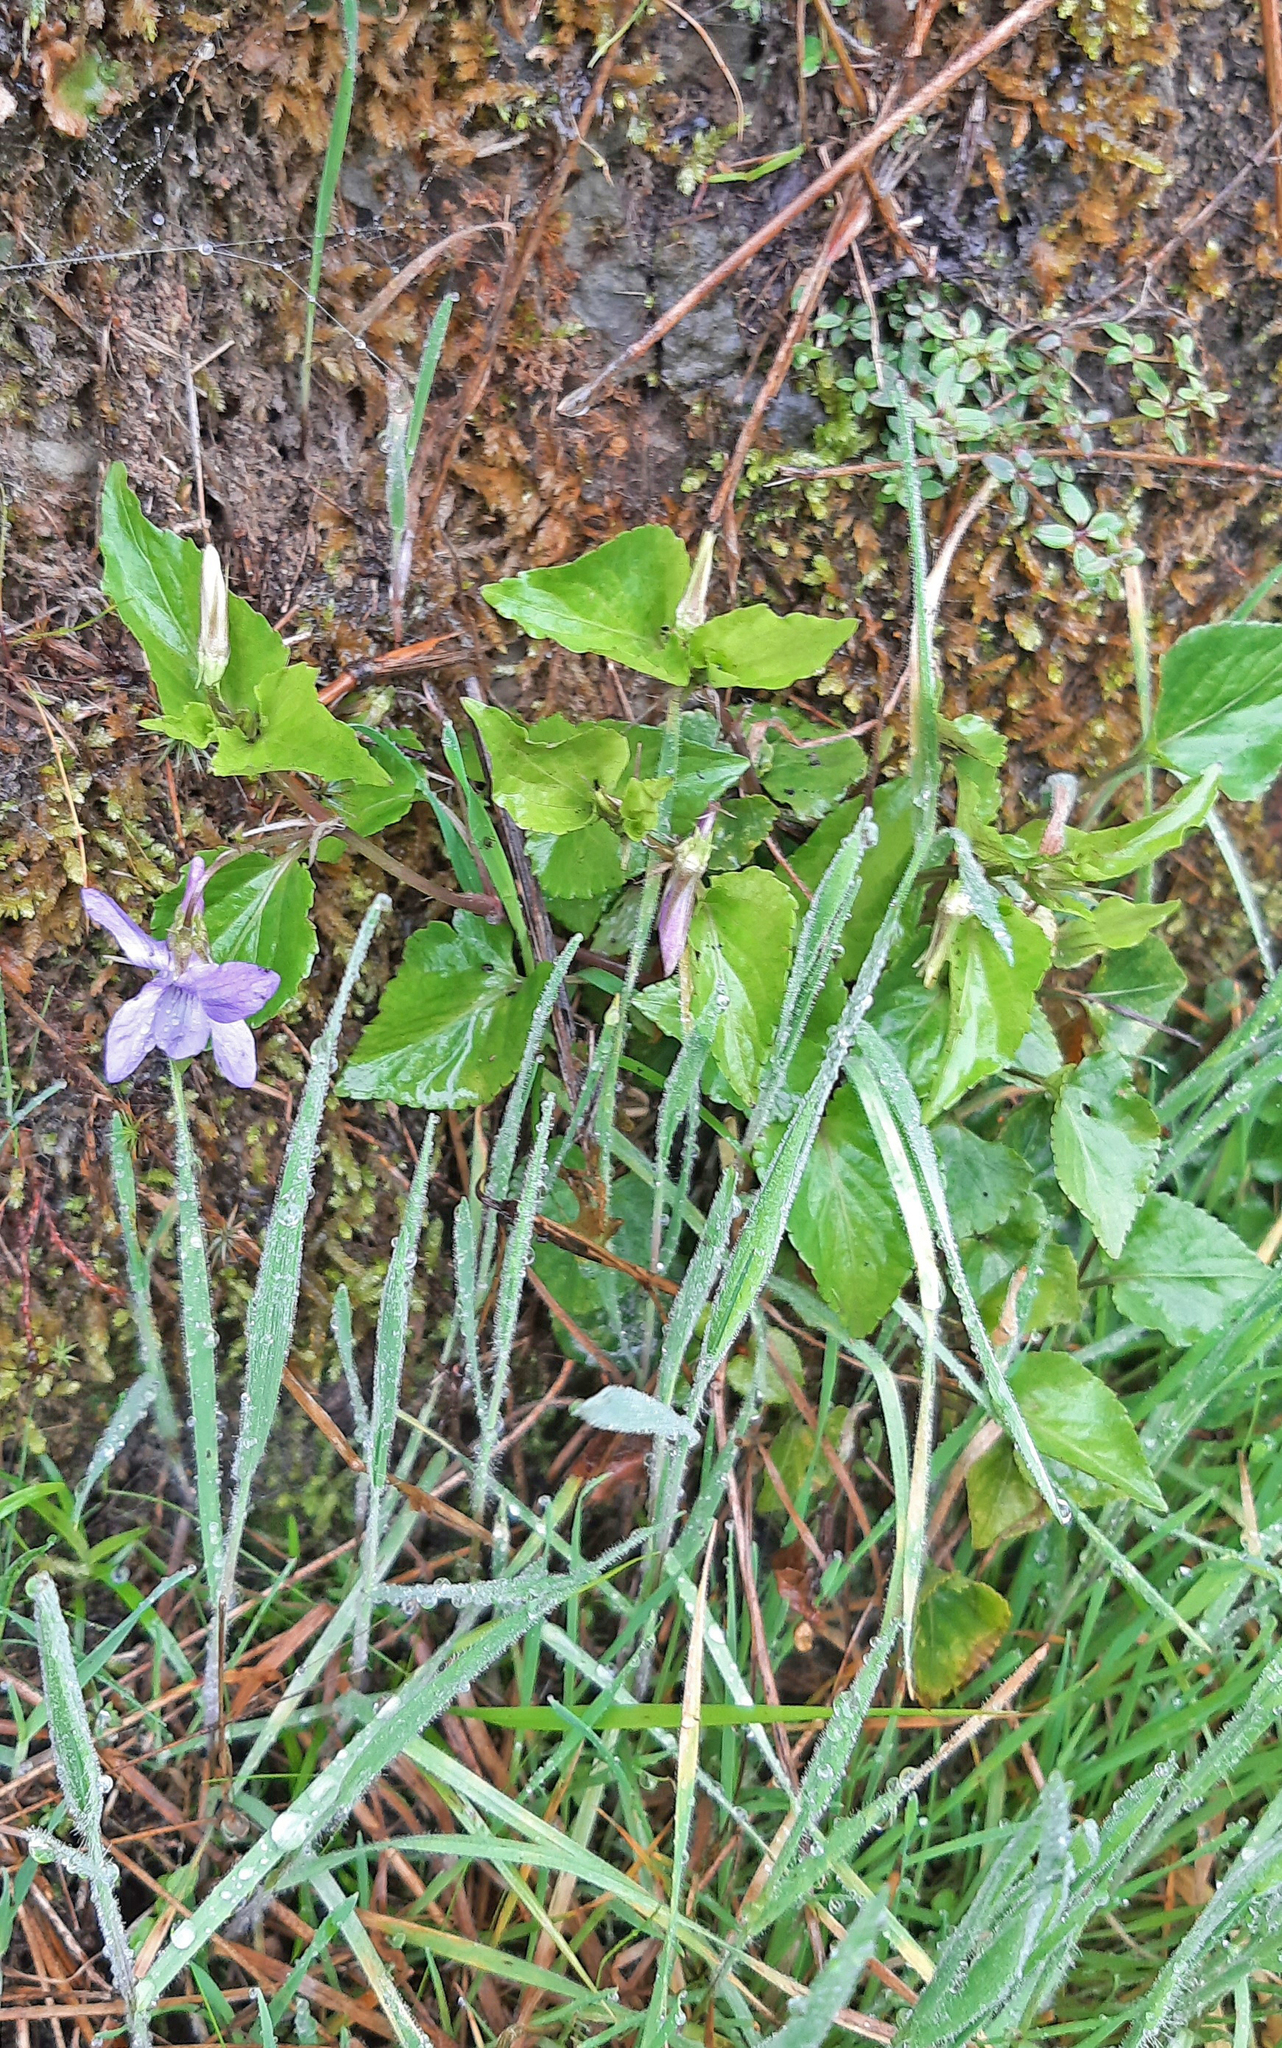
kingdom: Plantae
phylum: Tracheophyta
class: Magnoliopsida
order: Malpighiales
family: Violaceae
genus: Viola
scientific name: Viola riviniana
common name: Common dog-violet
